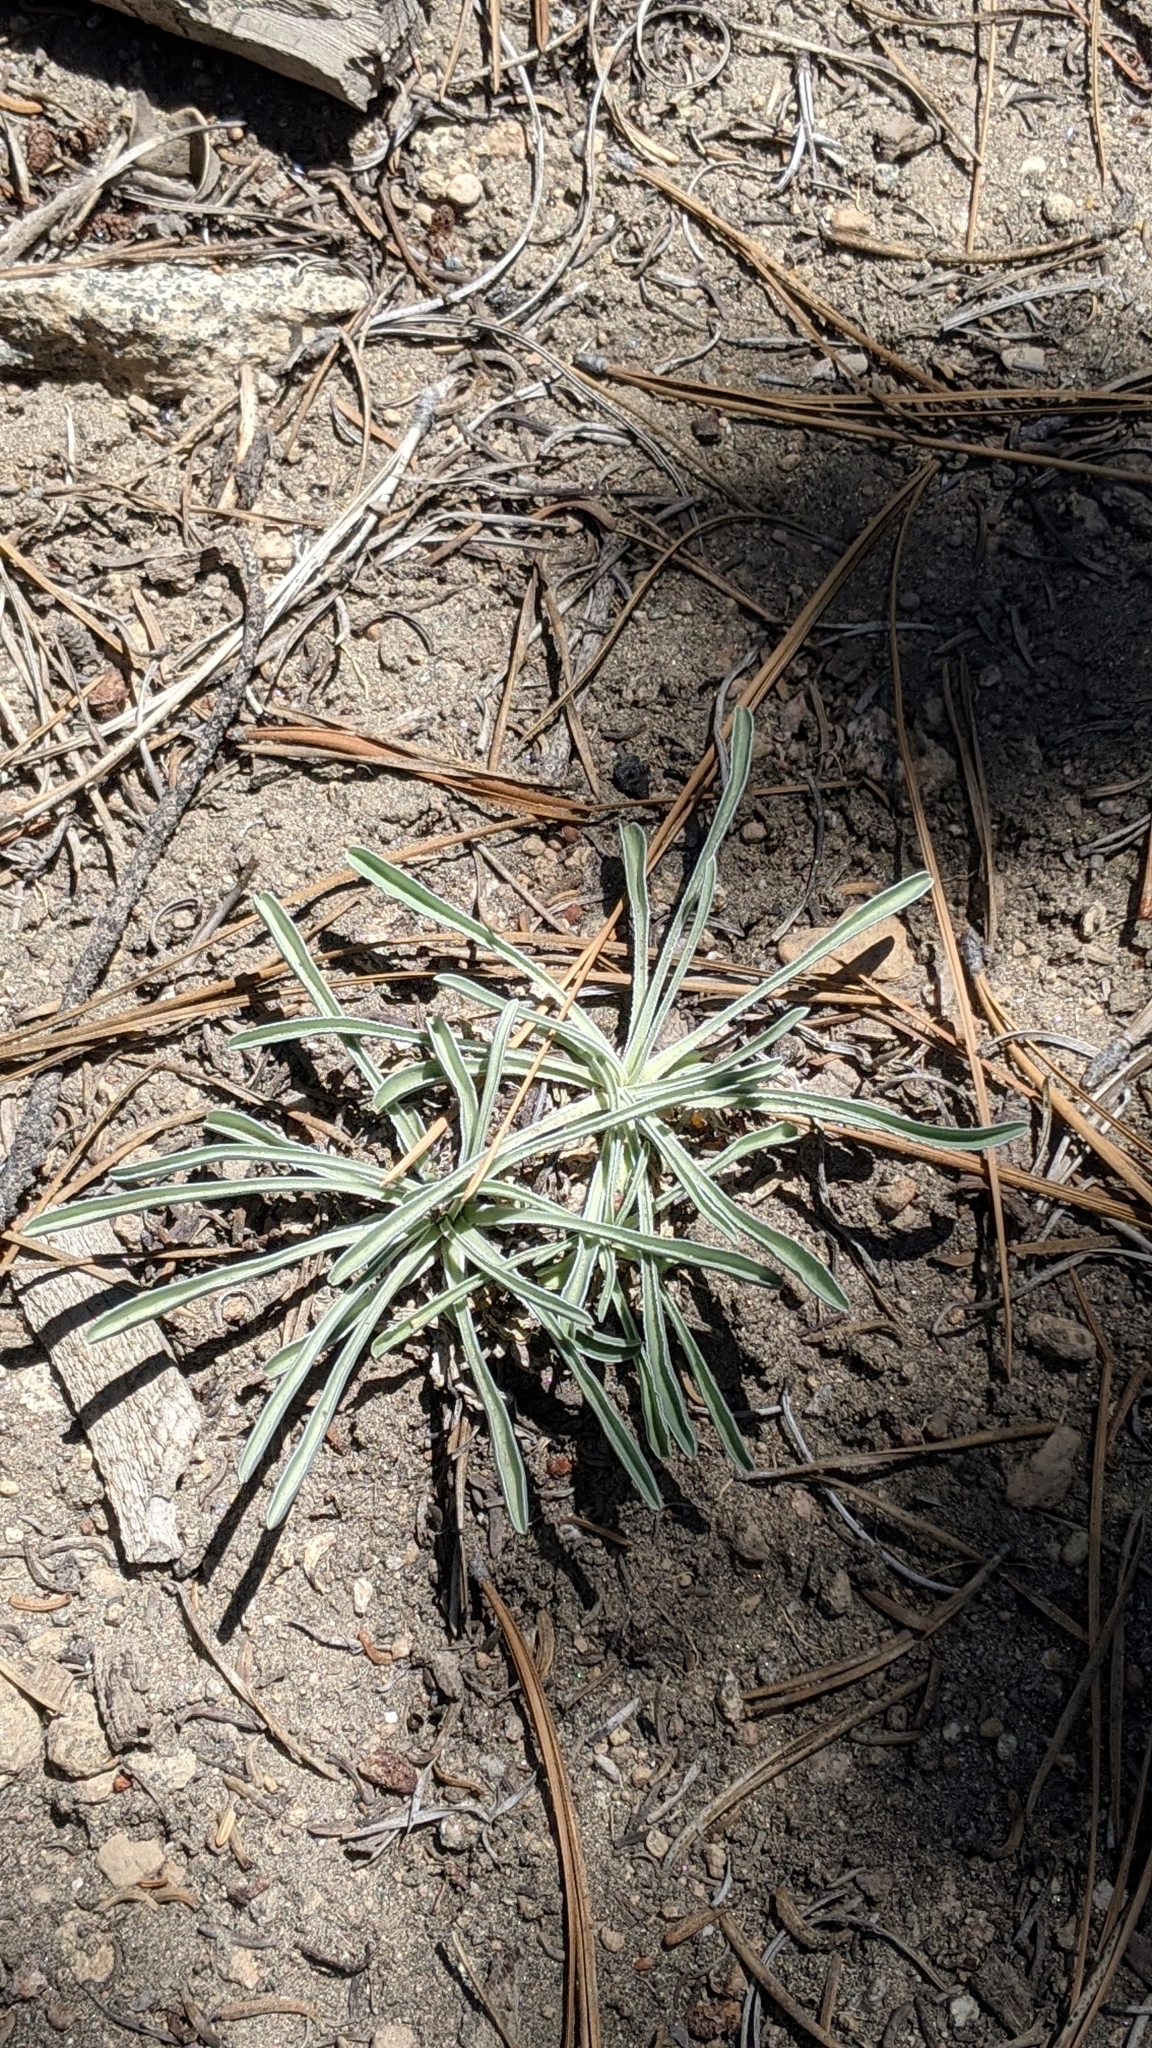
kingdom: Plantae
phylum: Tracheophyta
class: Magnoliopsida
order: Gentianales
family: Gentianaceae
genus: Frasera
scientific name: Frasera tubulosa
